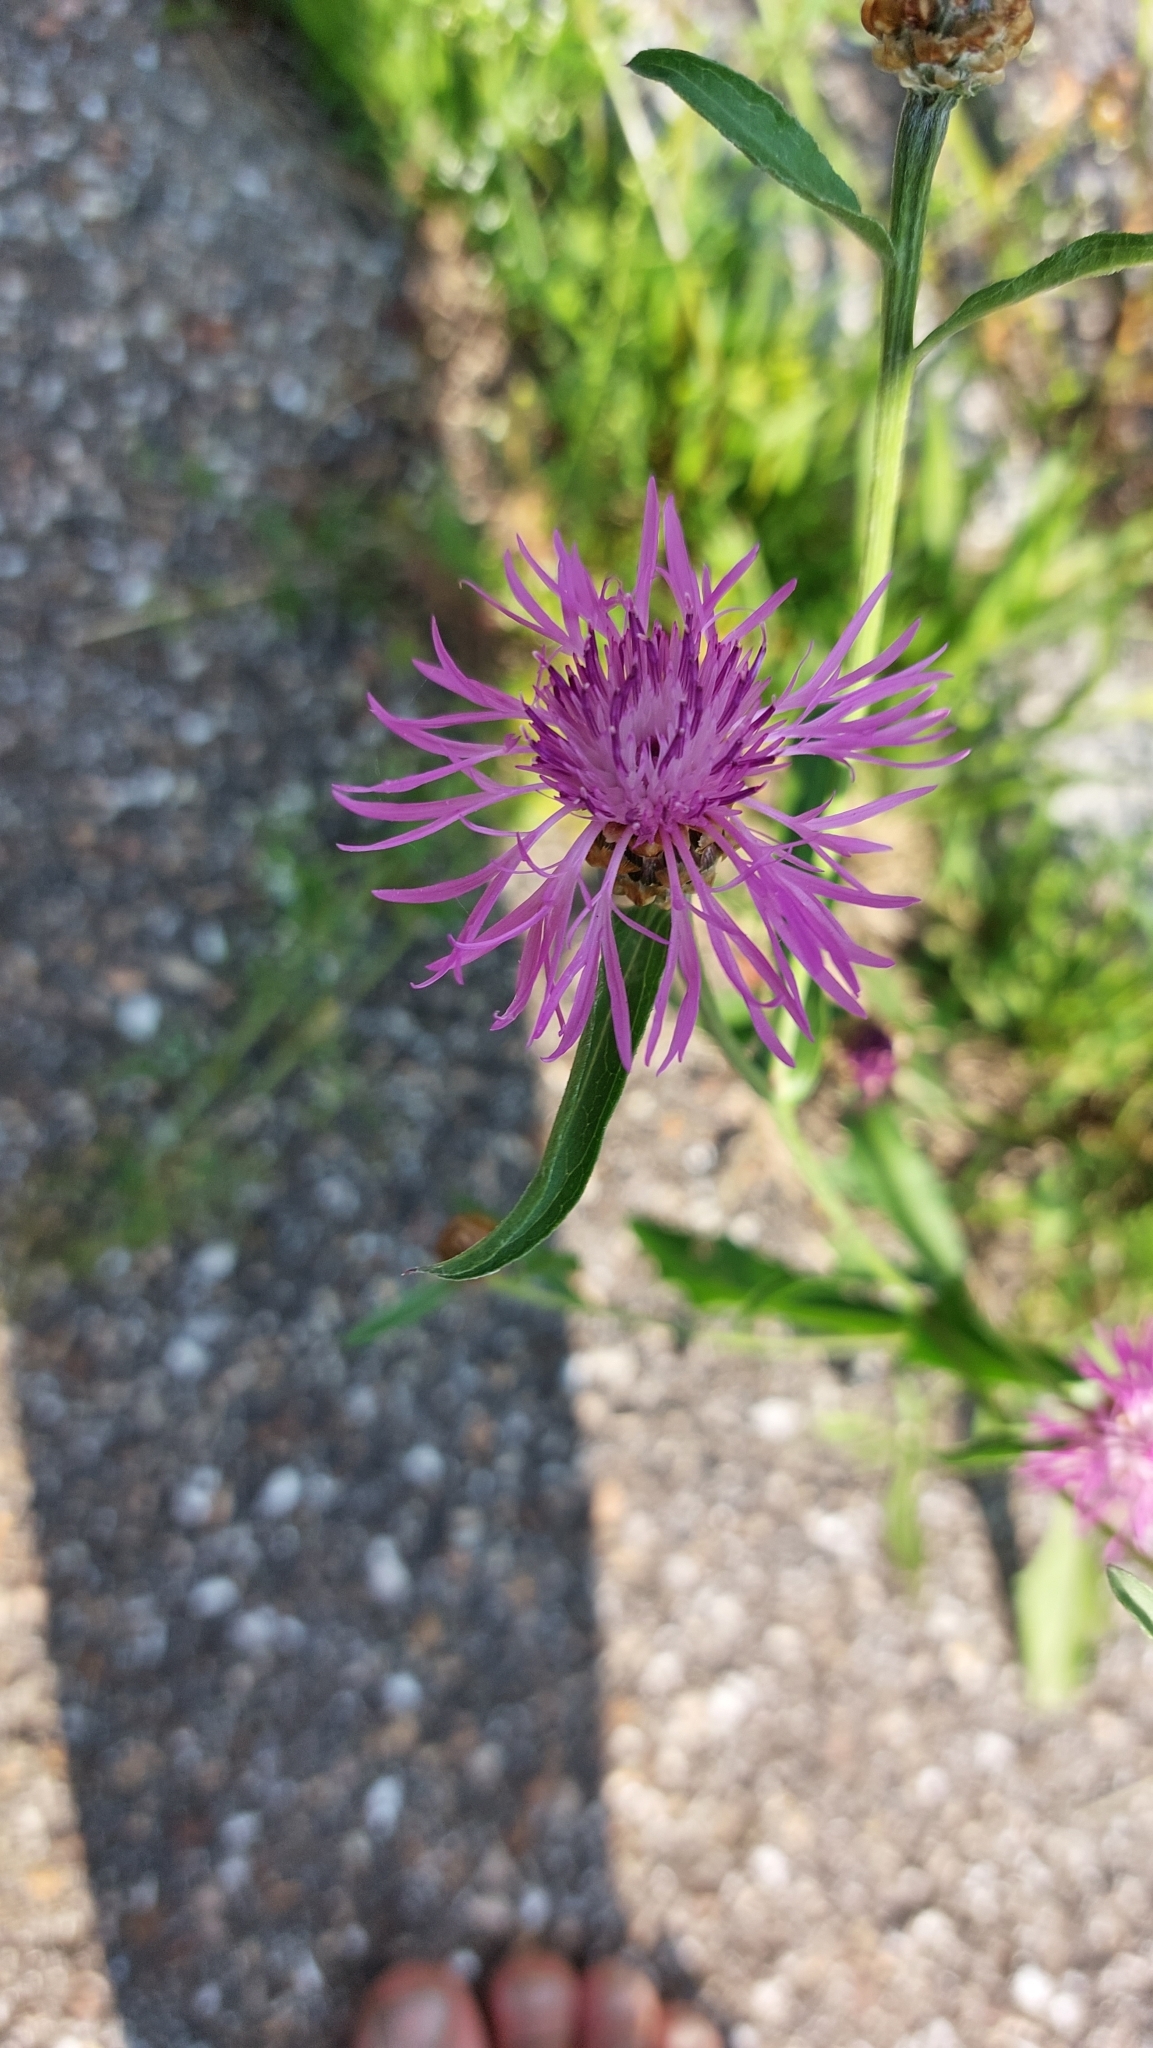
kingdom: Plantae
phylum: Tracheophyta
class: Magnoliopsida
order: Asterales
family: Asteraceae
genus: Centaurea
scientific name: Centaurea jacea
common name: Brown knapweed
